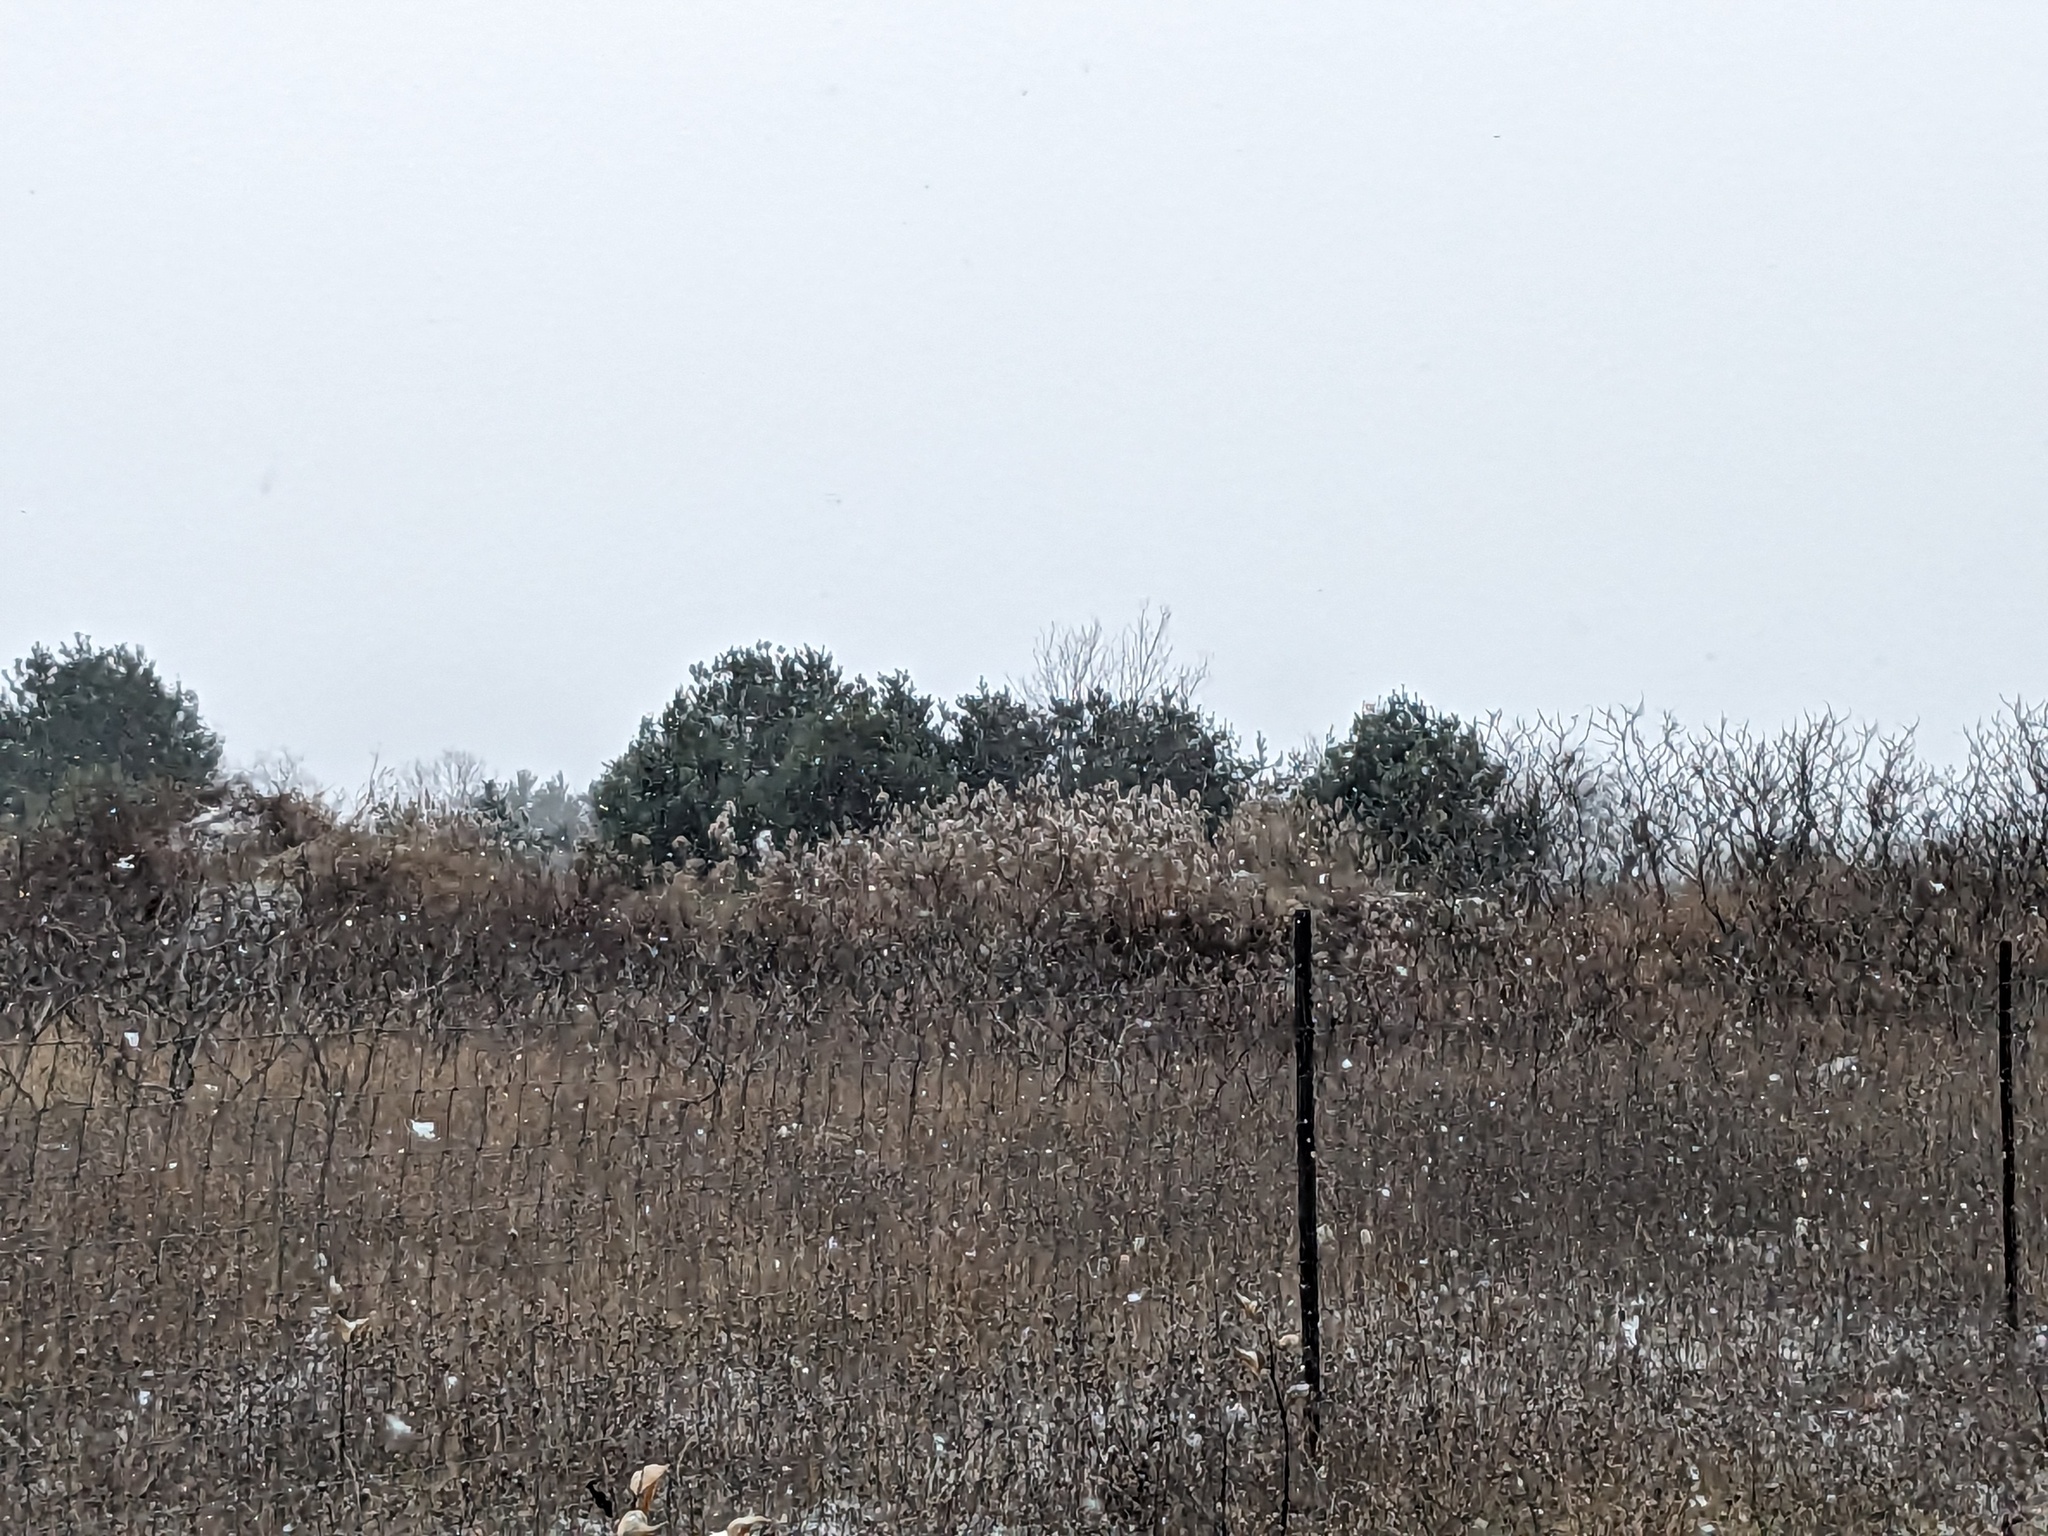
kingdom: Plantae
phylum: Tracheophyta
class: Liliopsida
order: Poales
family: Poaceae
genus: Phragmites
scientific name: Phragmites australis
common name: Common reed
